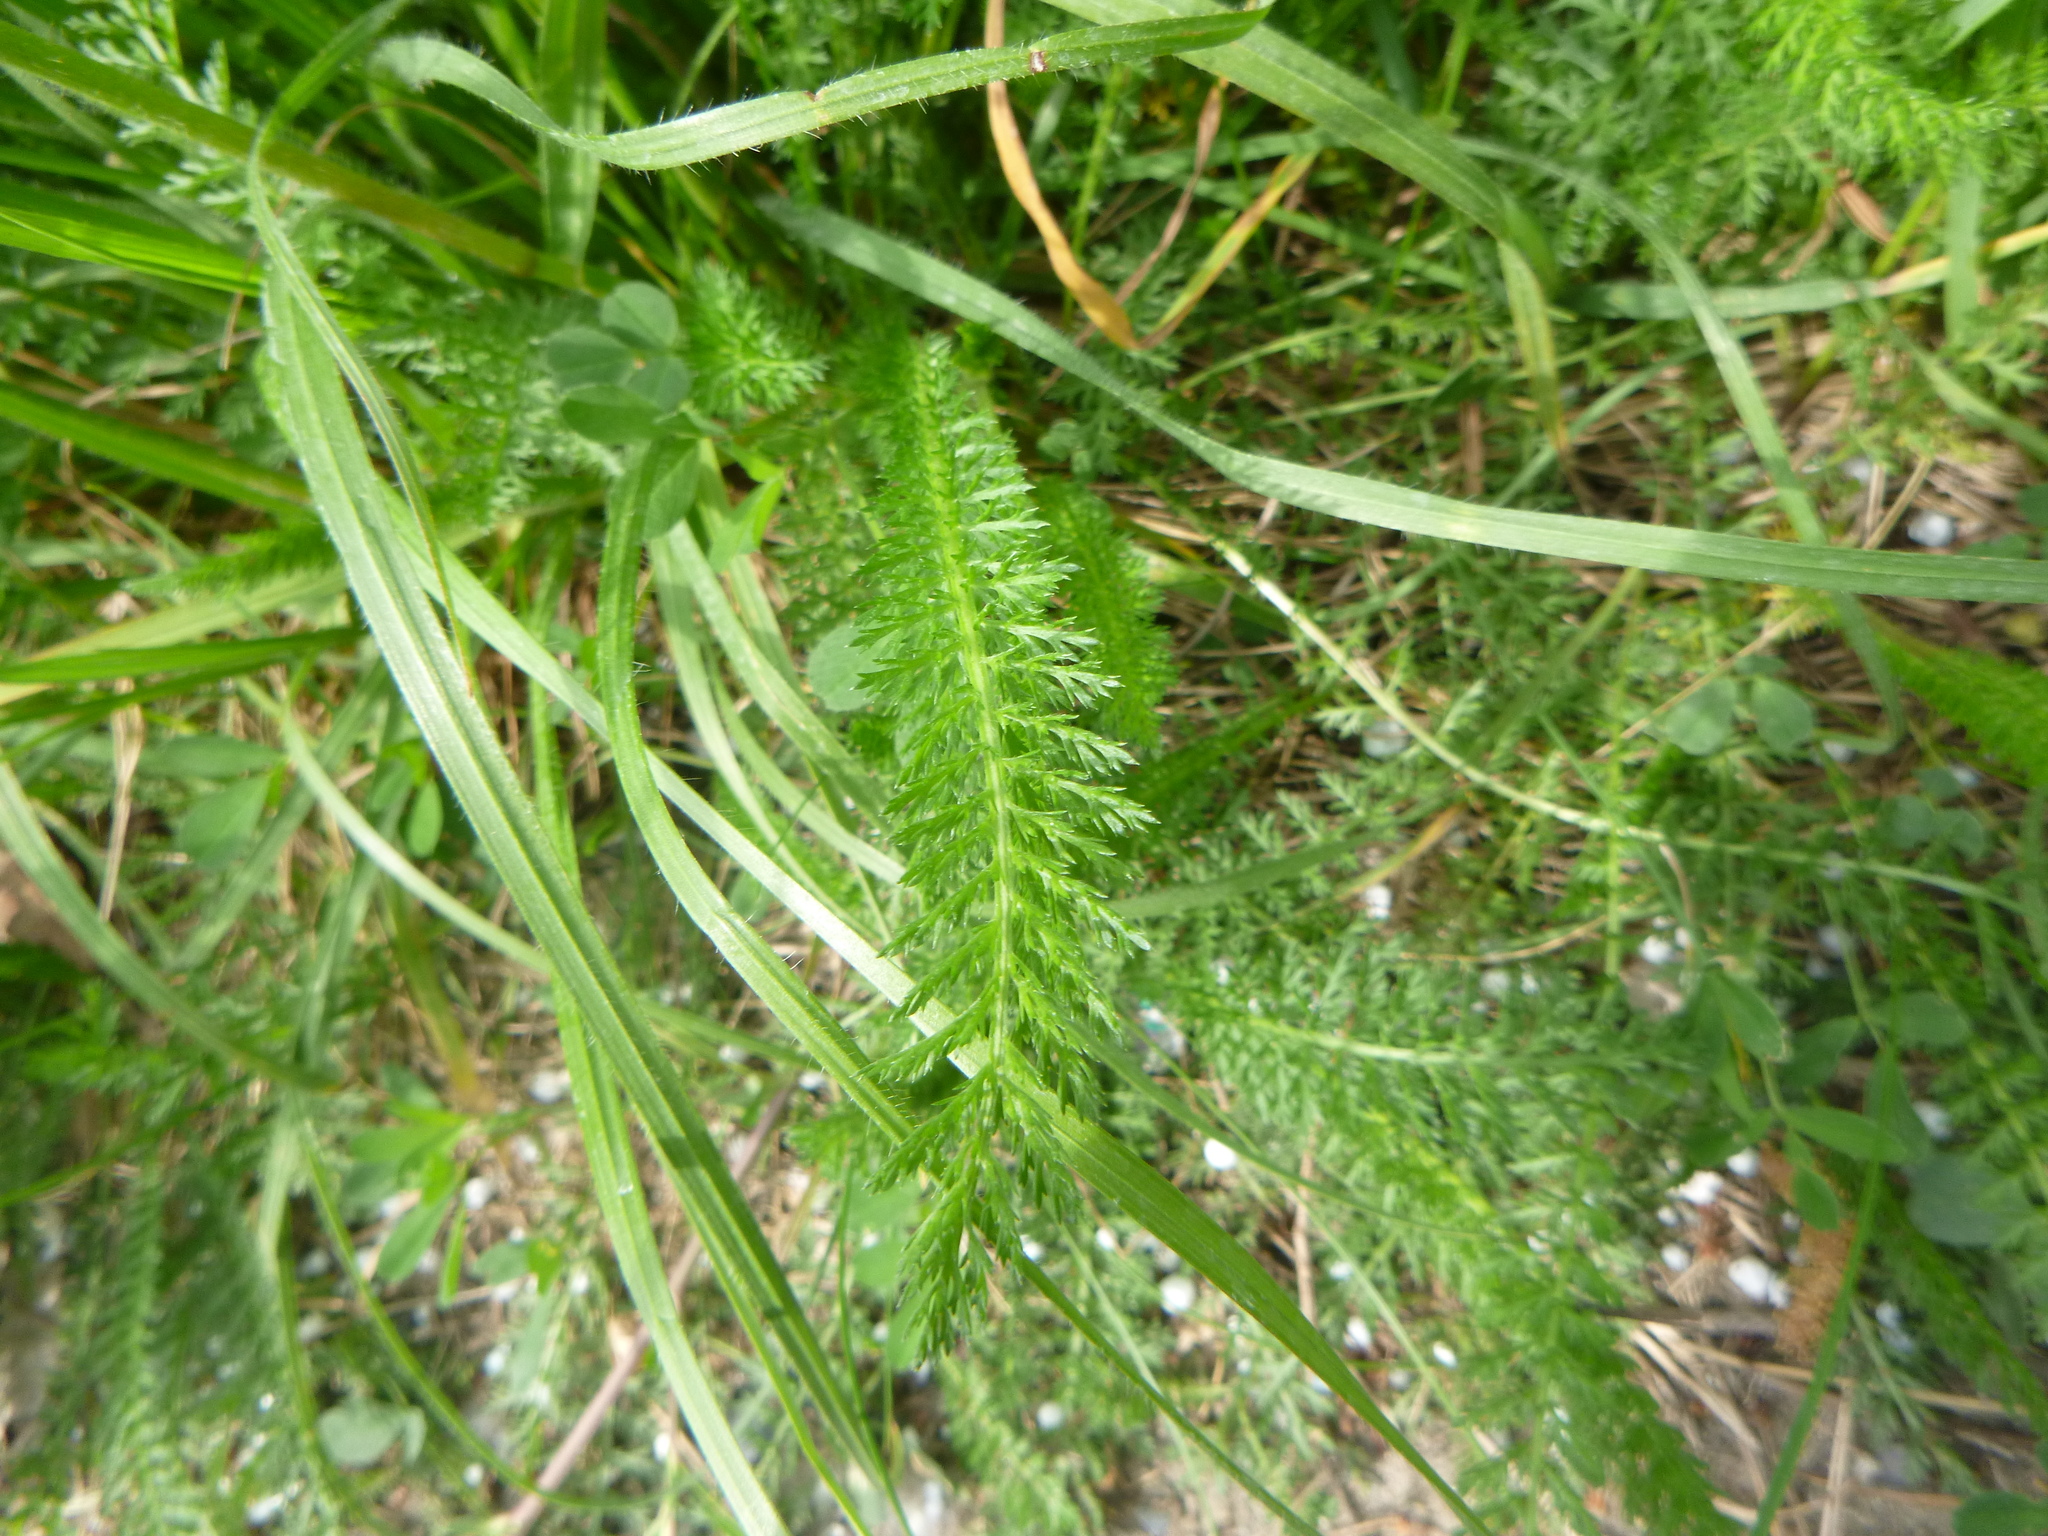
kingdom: Plantae
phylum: Tracheophyta
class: Magnoliopsida
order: Asterales
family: Asteraceae
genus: Achillea
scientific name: Achillea millefolium
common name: Yarrow
